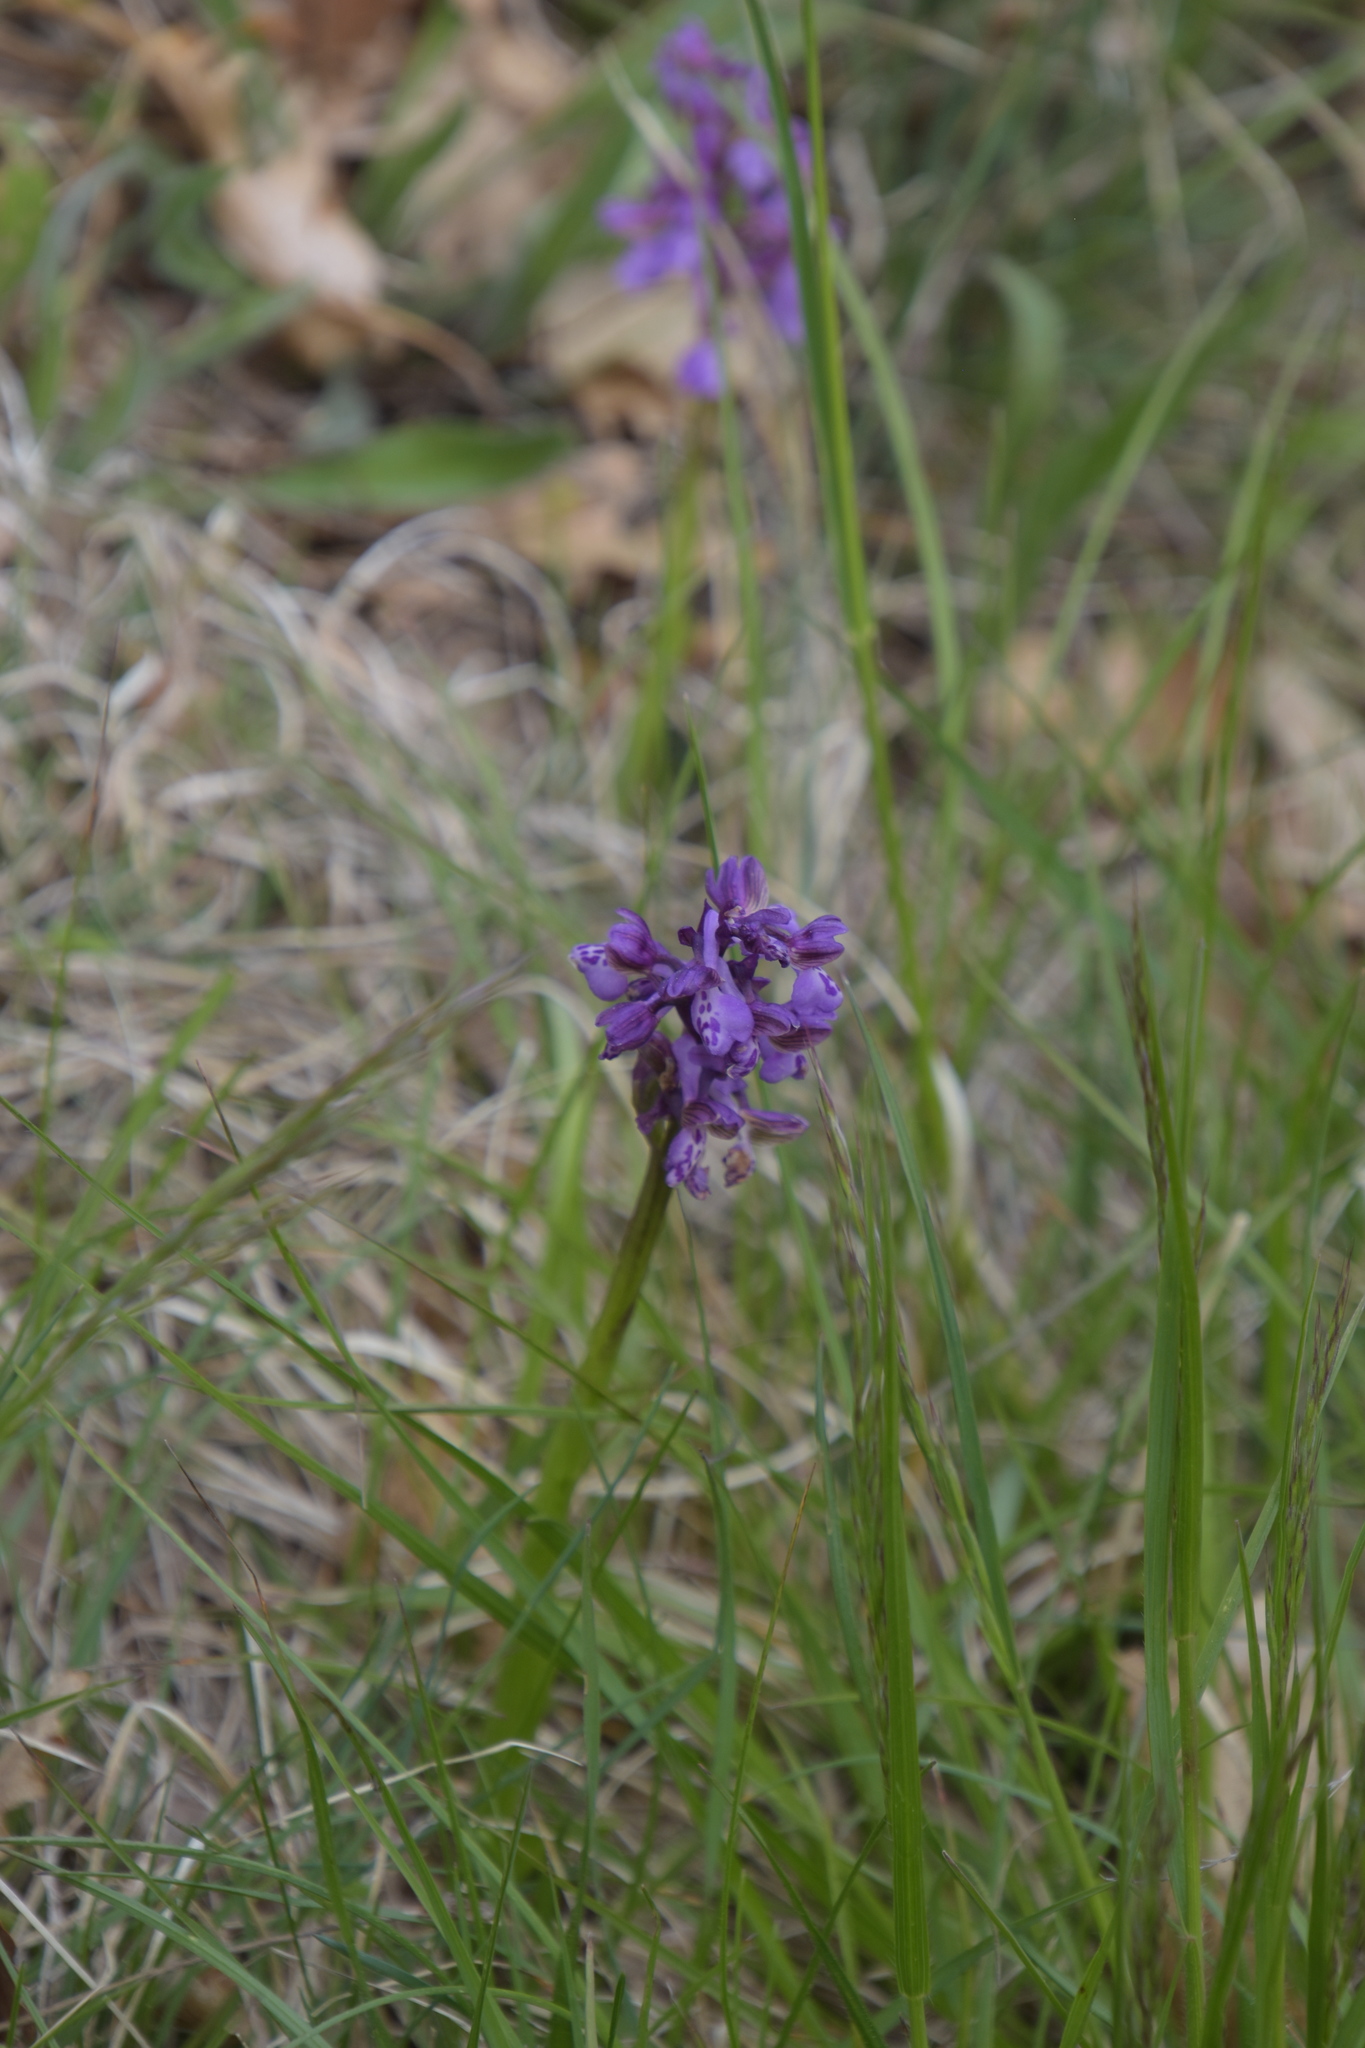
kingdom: Plantae
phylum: Tracheophyta
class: Liliopsida
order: Asparagales
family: Orchidaceae
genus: Anacamptis
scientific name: Anacamptis morio
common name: Green-winged orchid
